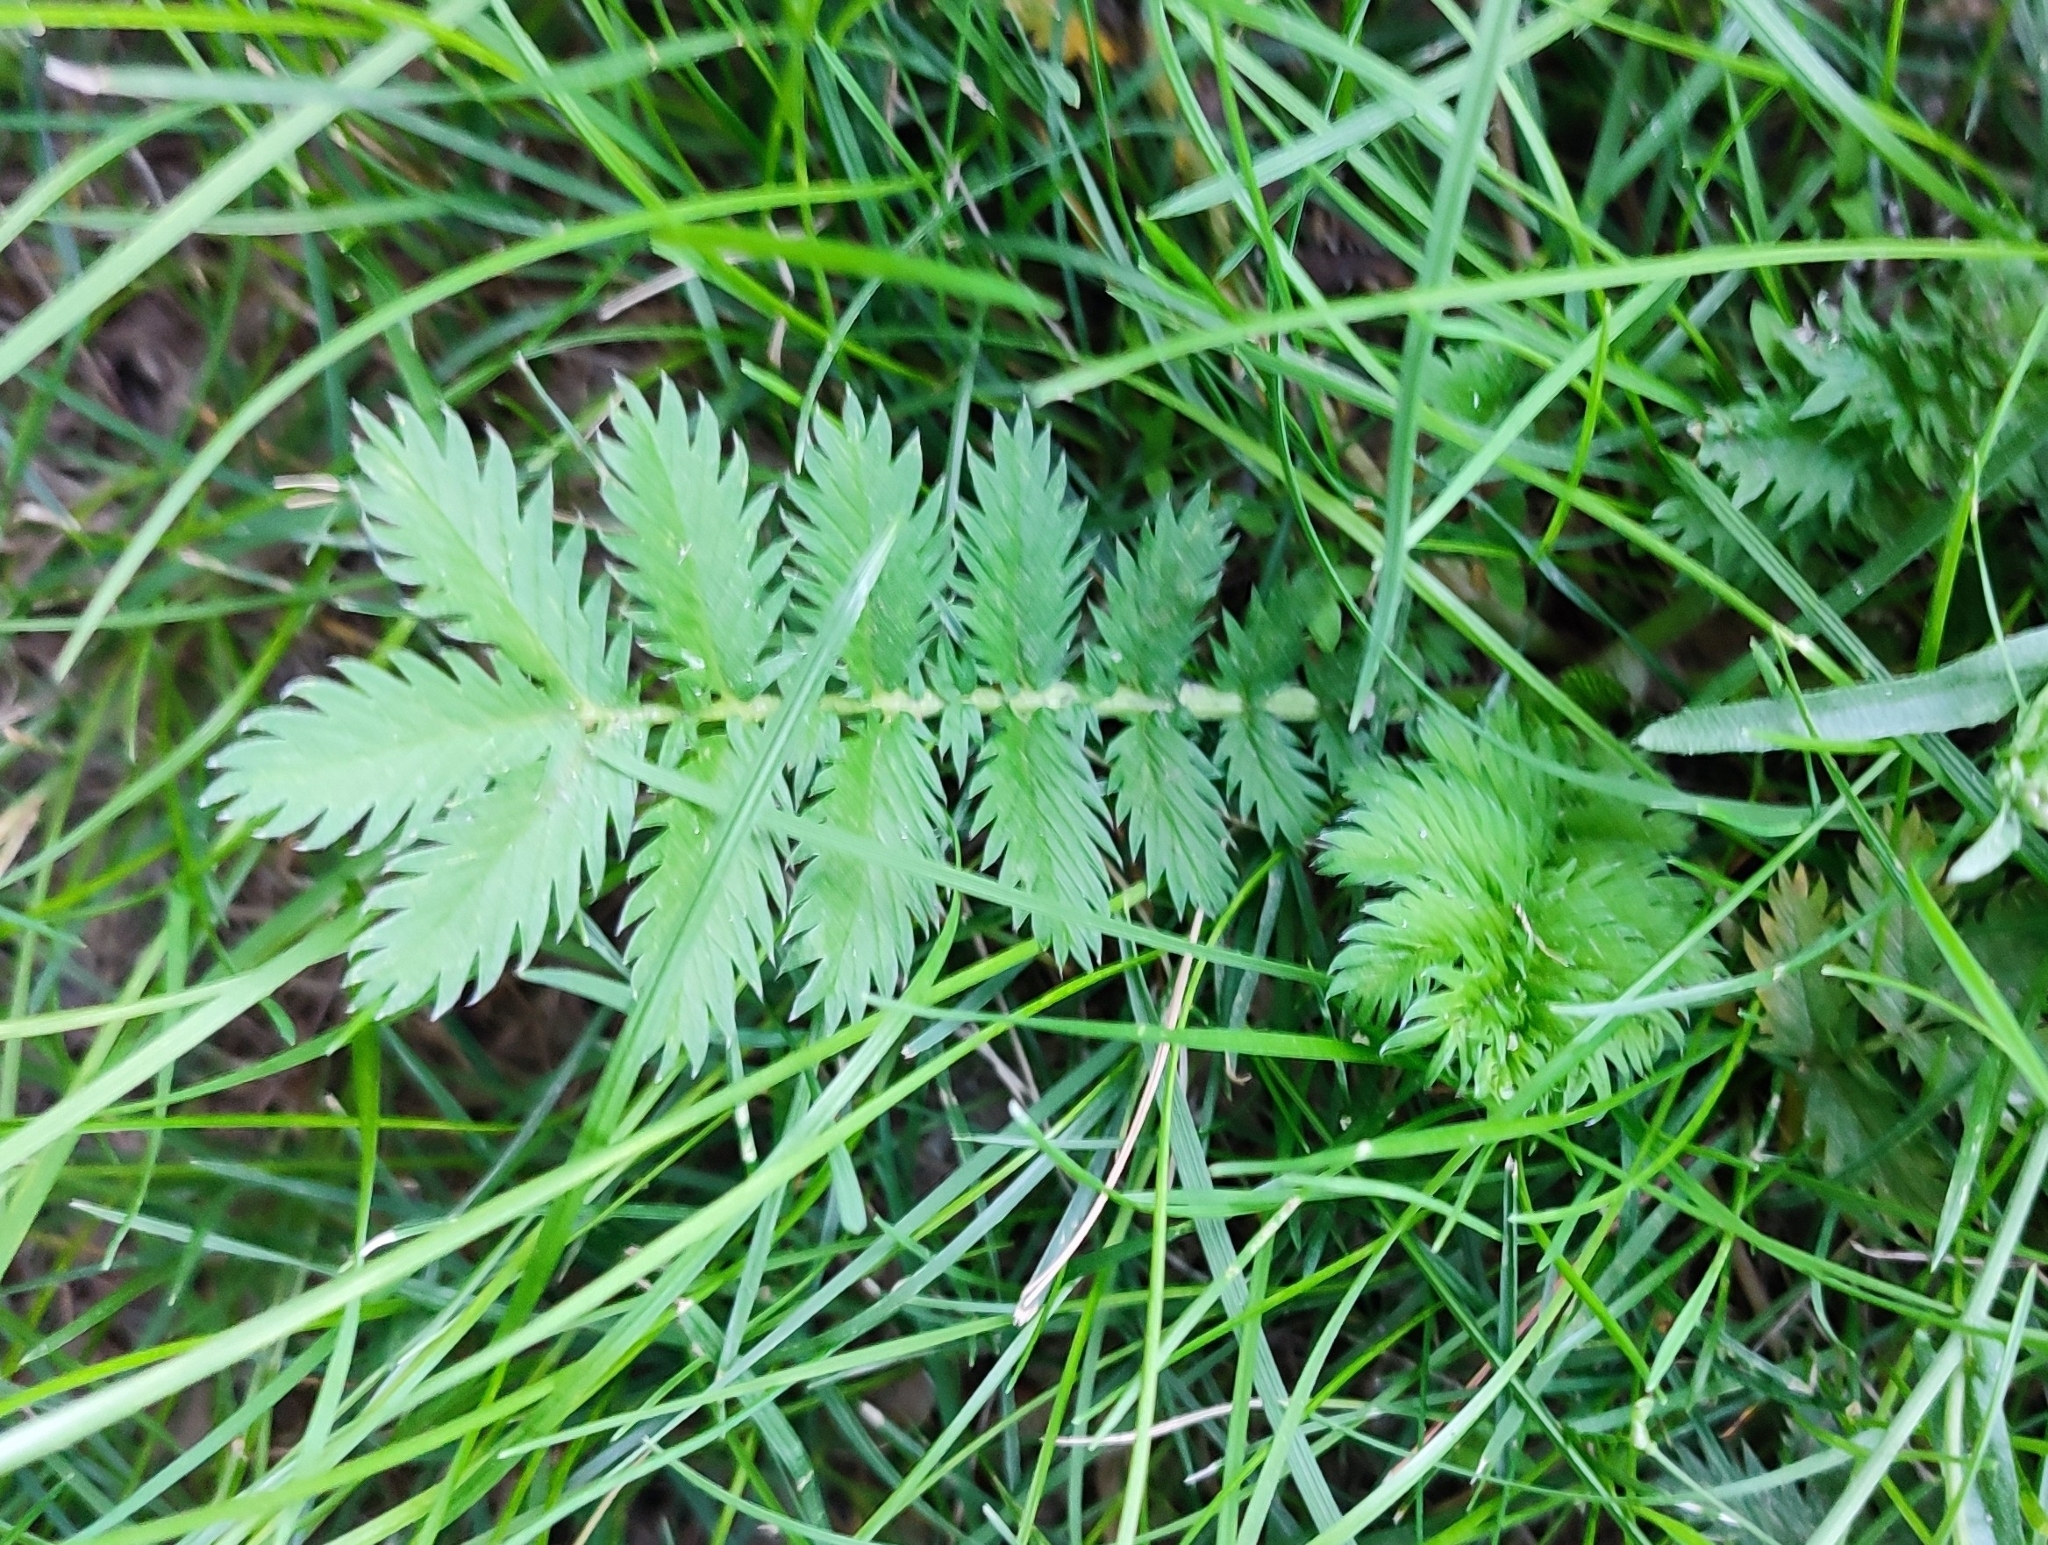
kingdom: Plantae
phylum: Tracheophyta
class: Magnoliopsida
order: Rosales
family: Rosaceae
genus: Argentina
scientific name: Argentina anserina
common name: Common silverweed
